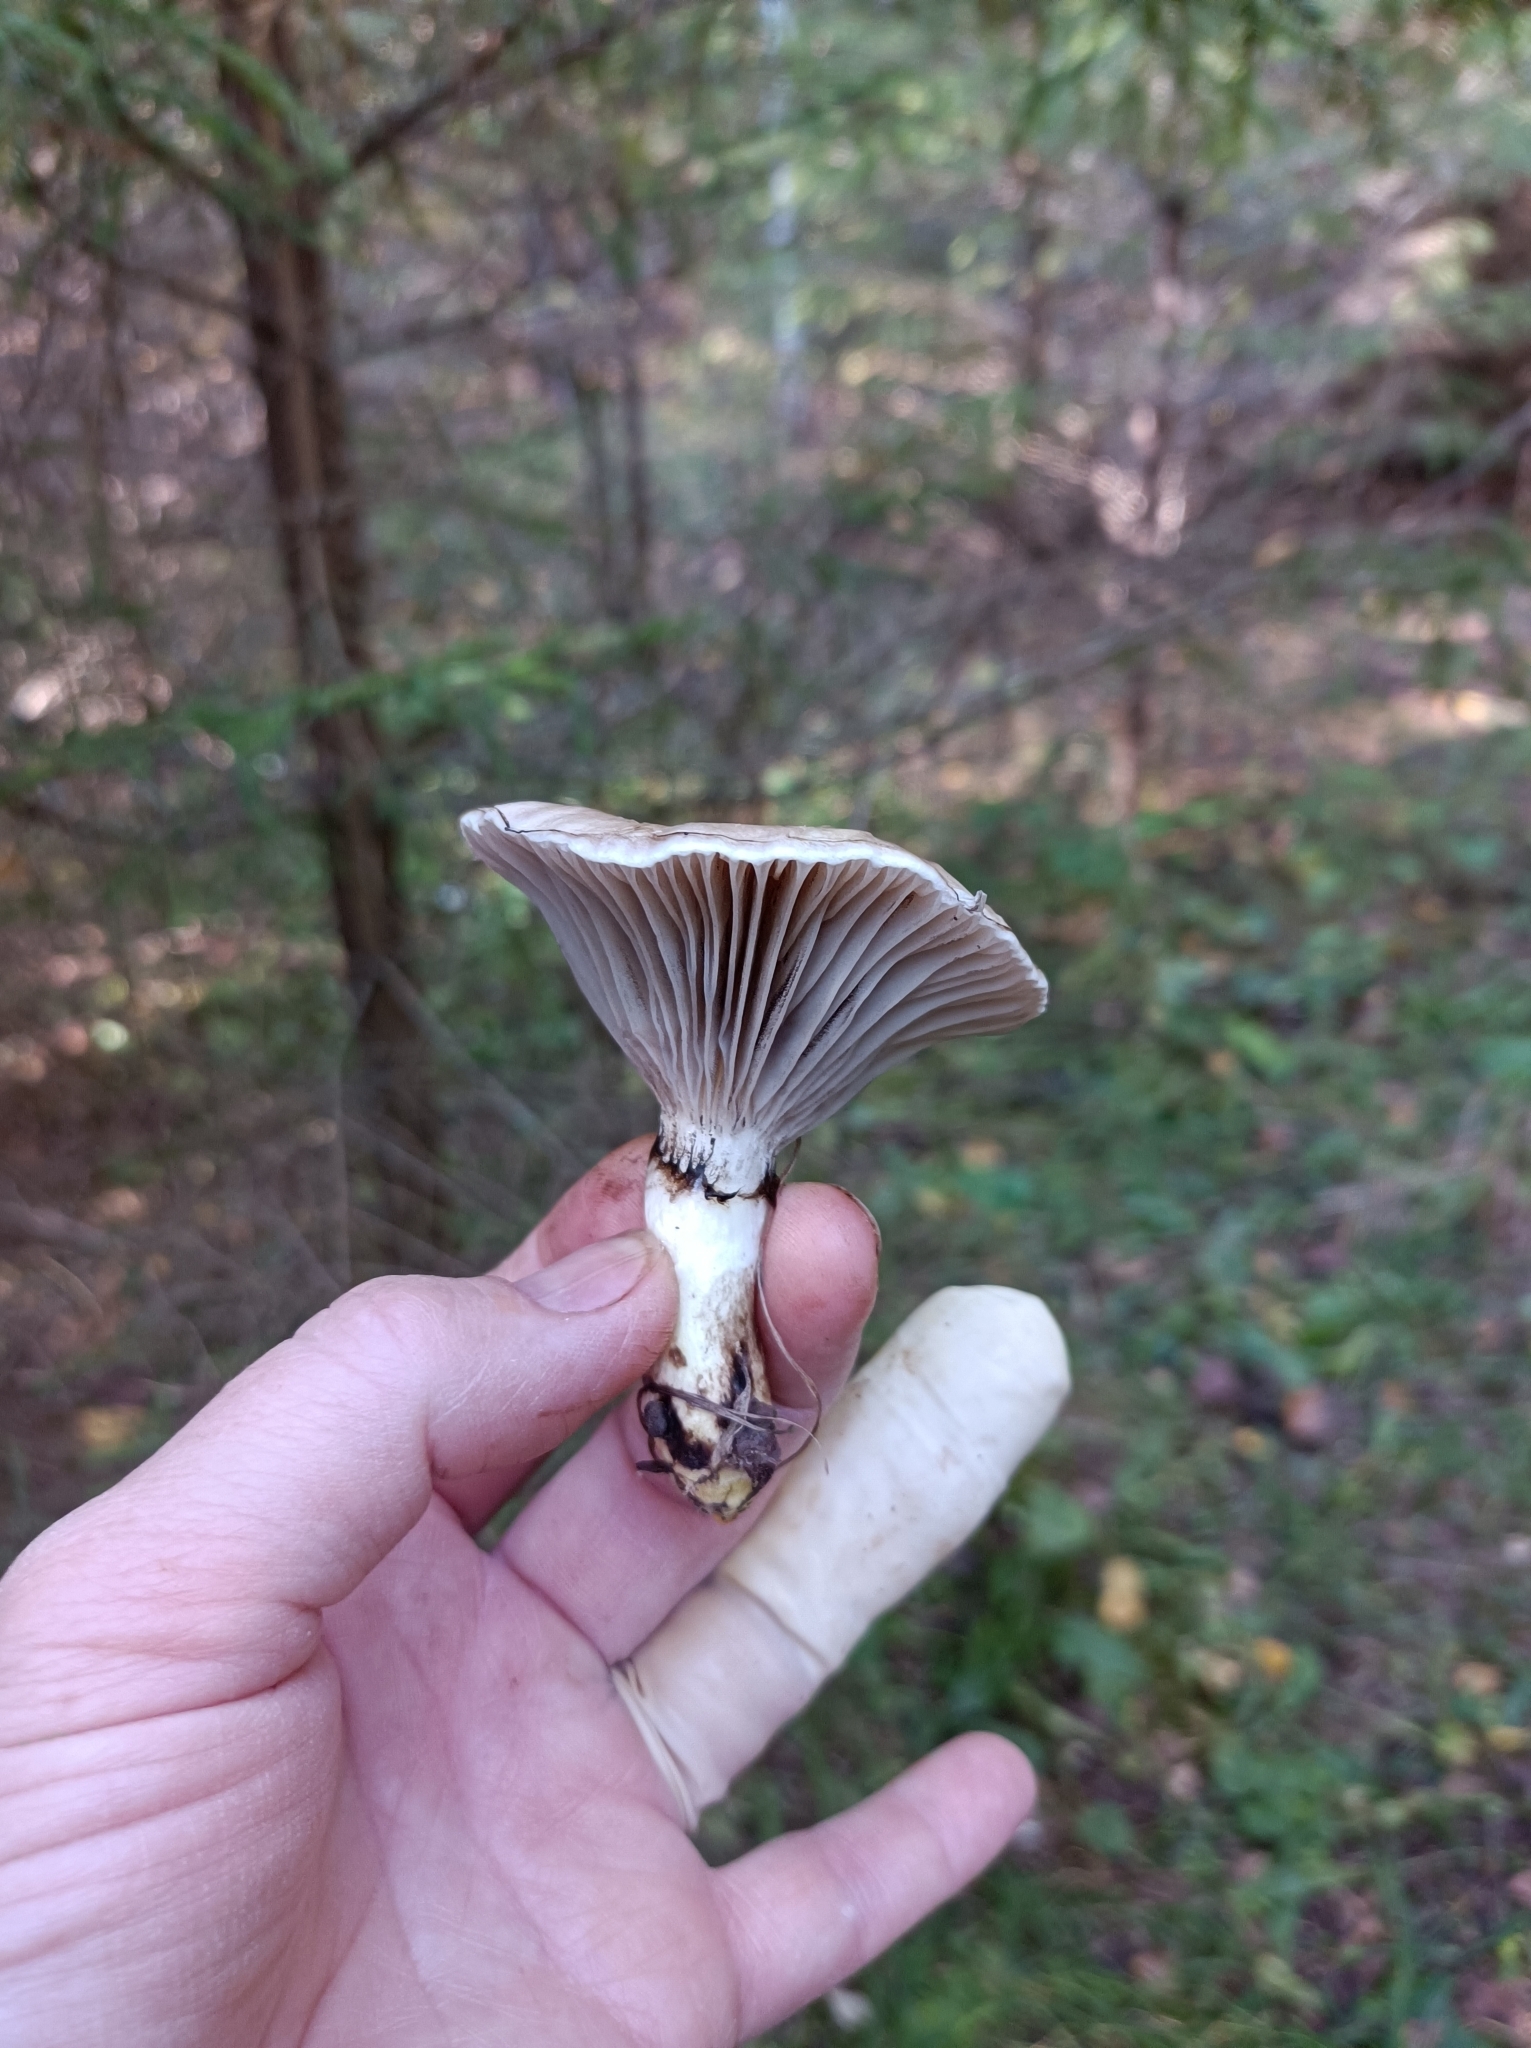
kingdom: Fungi
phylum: Basidiomycota
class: Agaricomycetes
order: Boletales
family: Gomphidiaceae
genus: Gomphidius
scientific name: Gomphidius glutinosus
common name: Slimy spike
